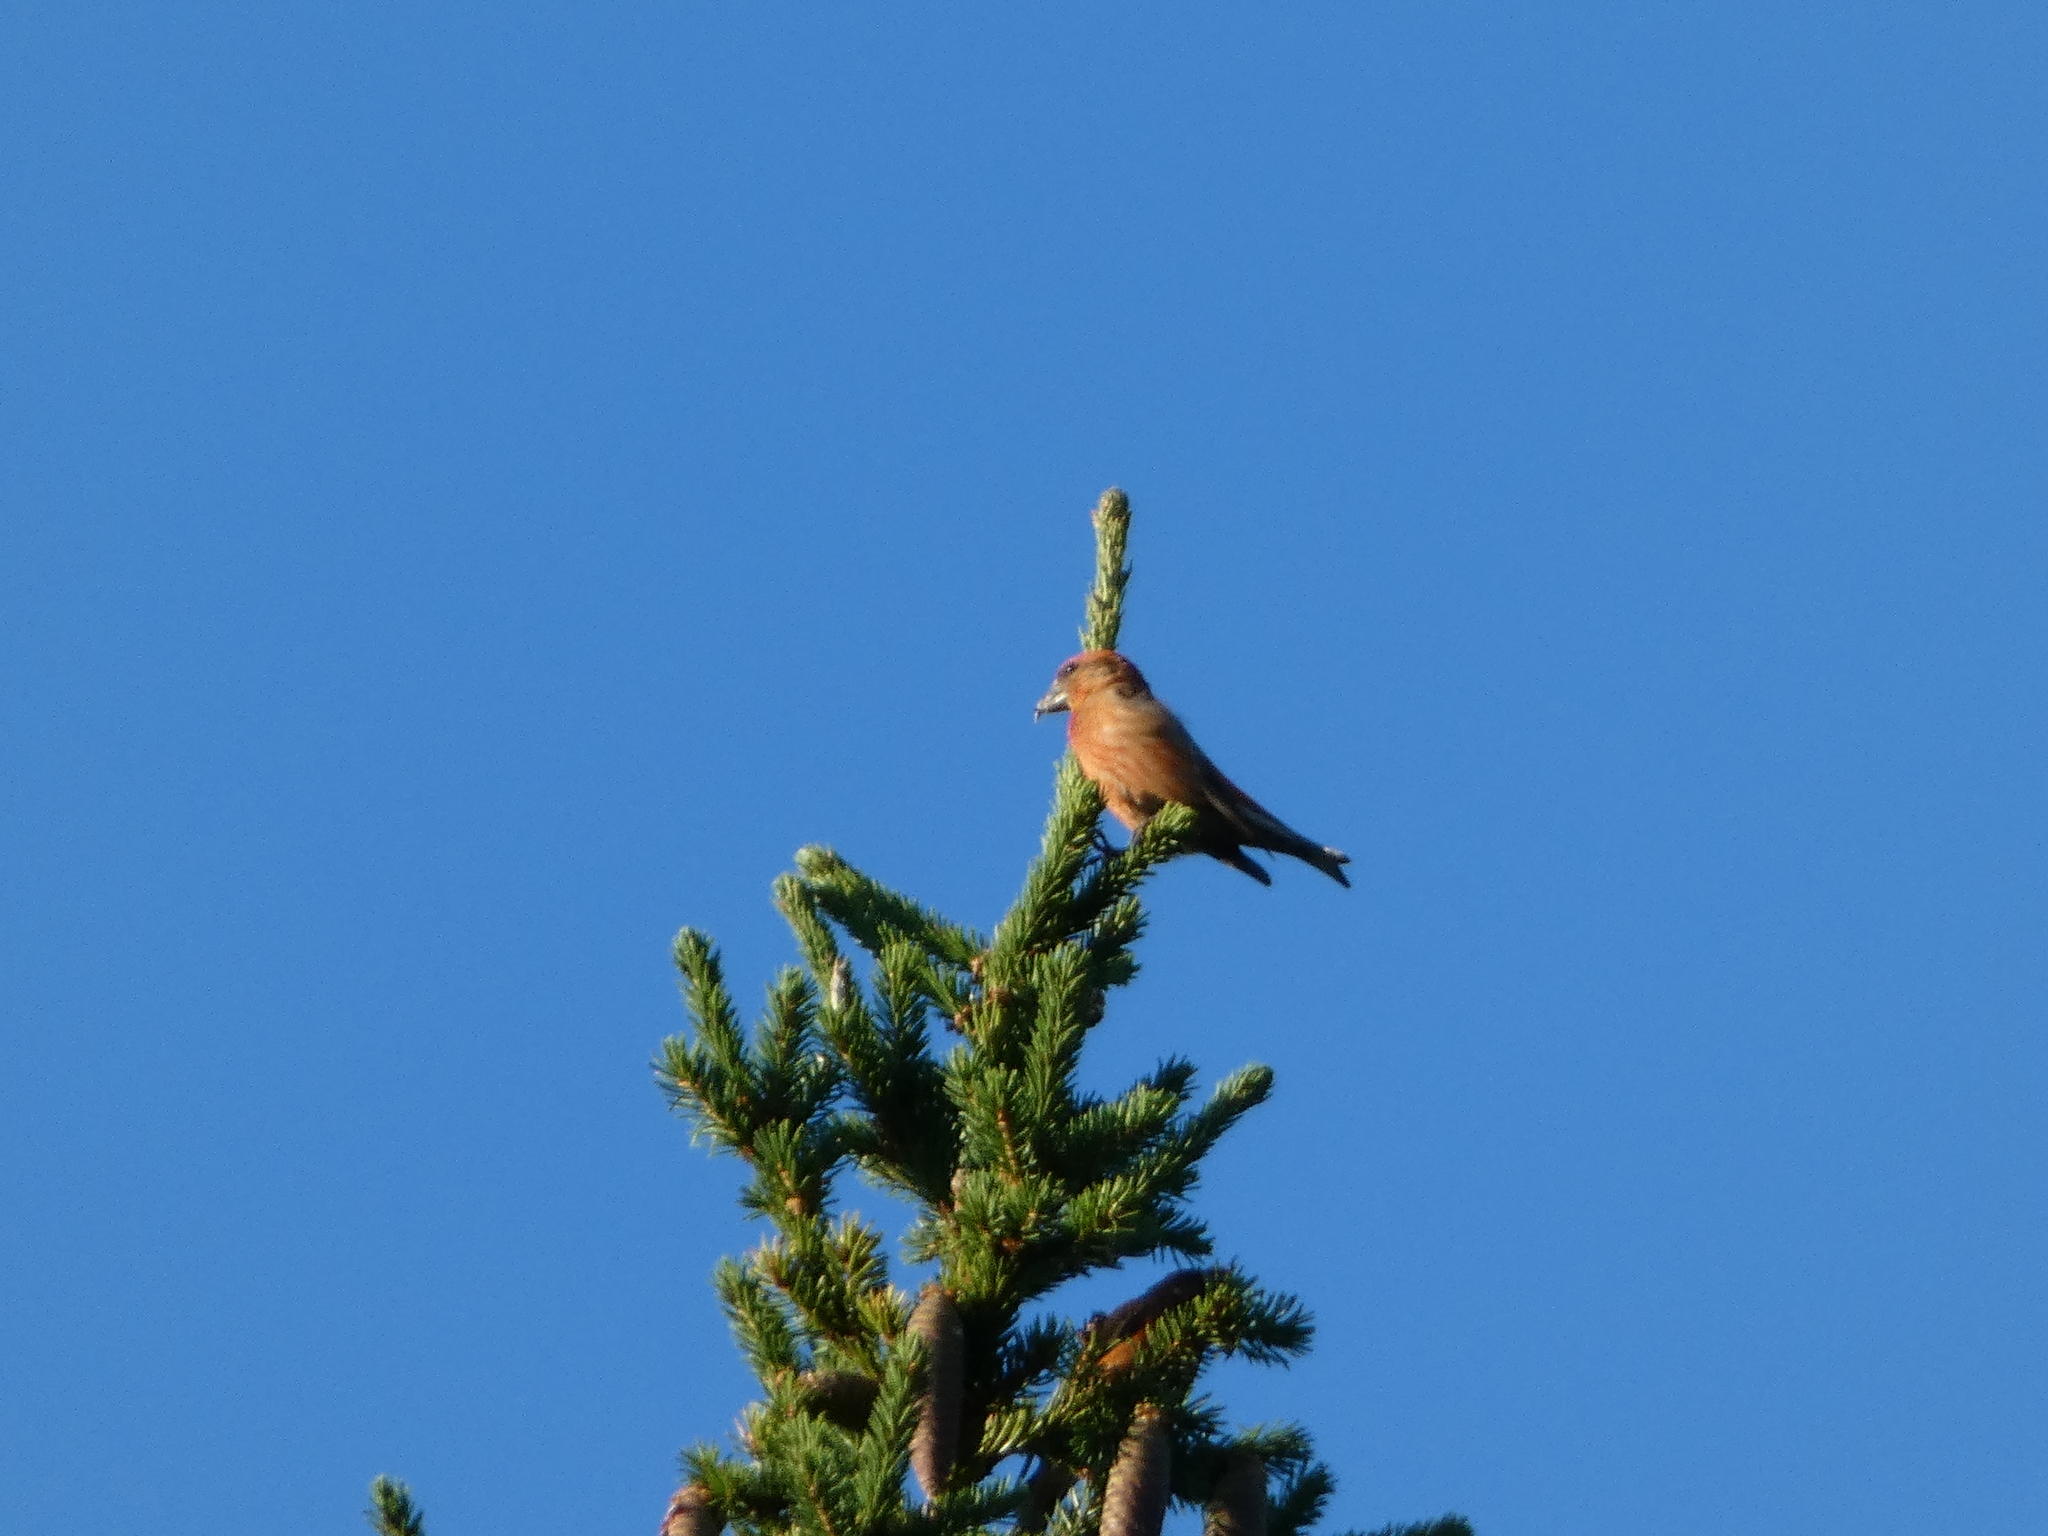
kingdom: Animalia
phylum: Chordata
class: Aves
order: Passeriformes
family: Fringillidae
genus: Loxia
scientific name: Loxia curvirostra
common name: Red crossbill
